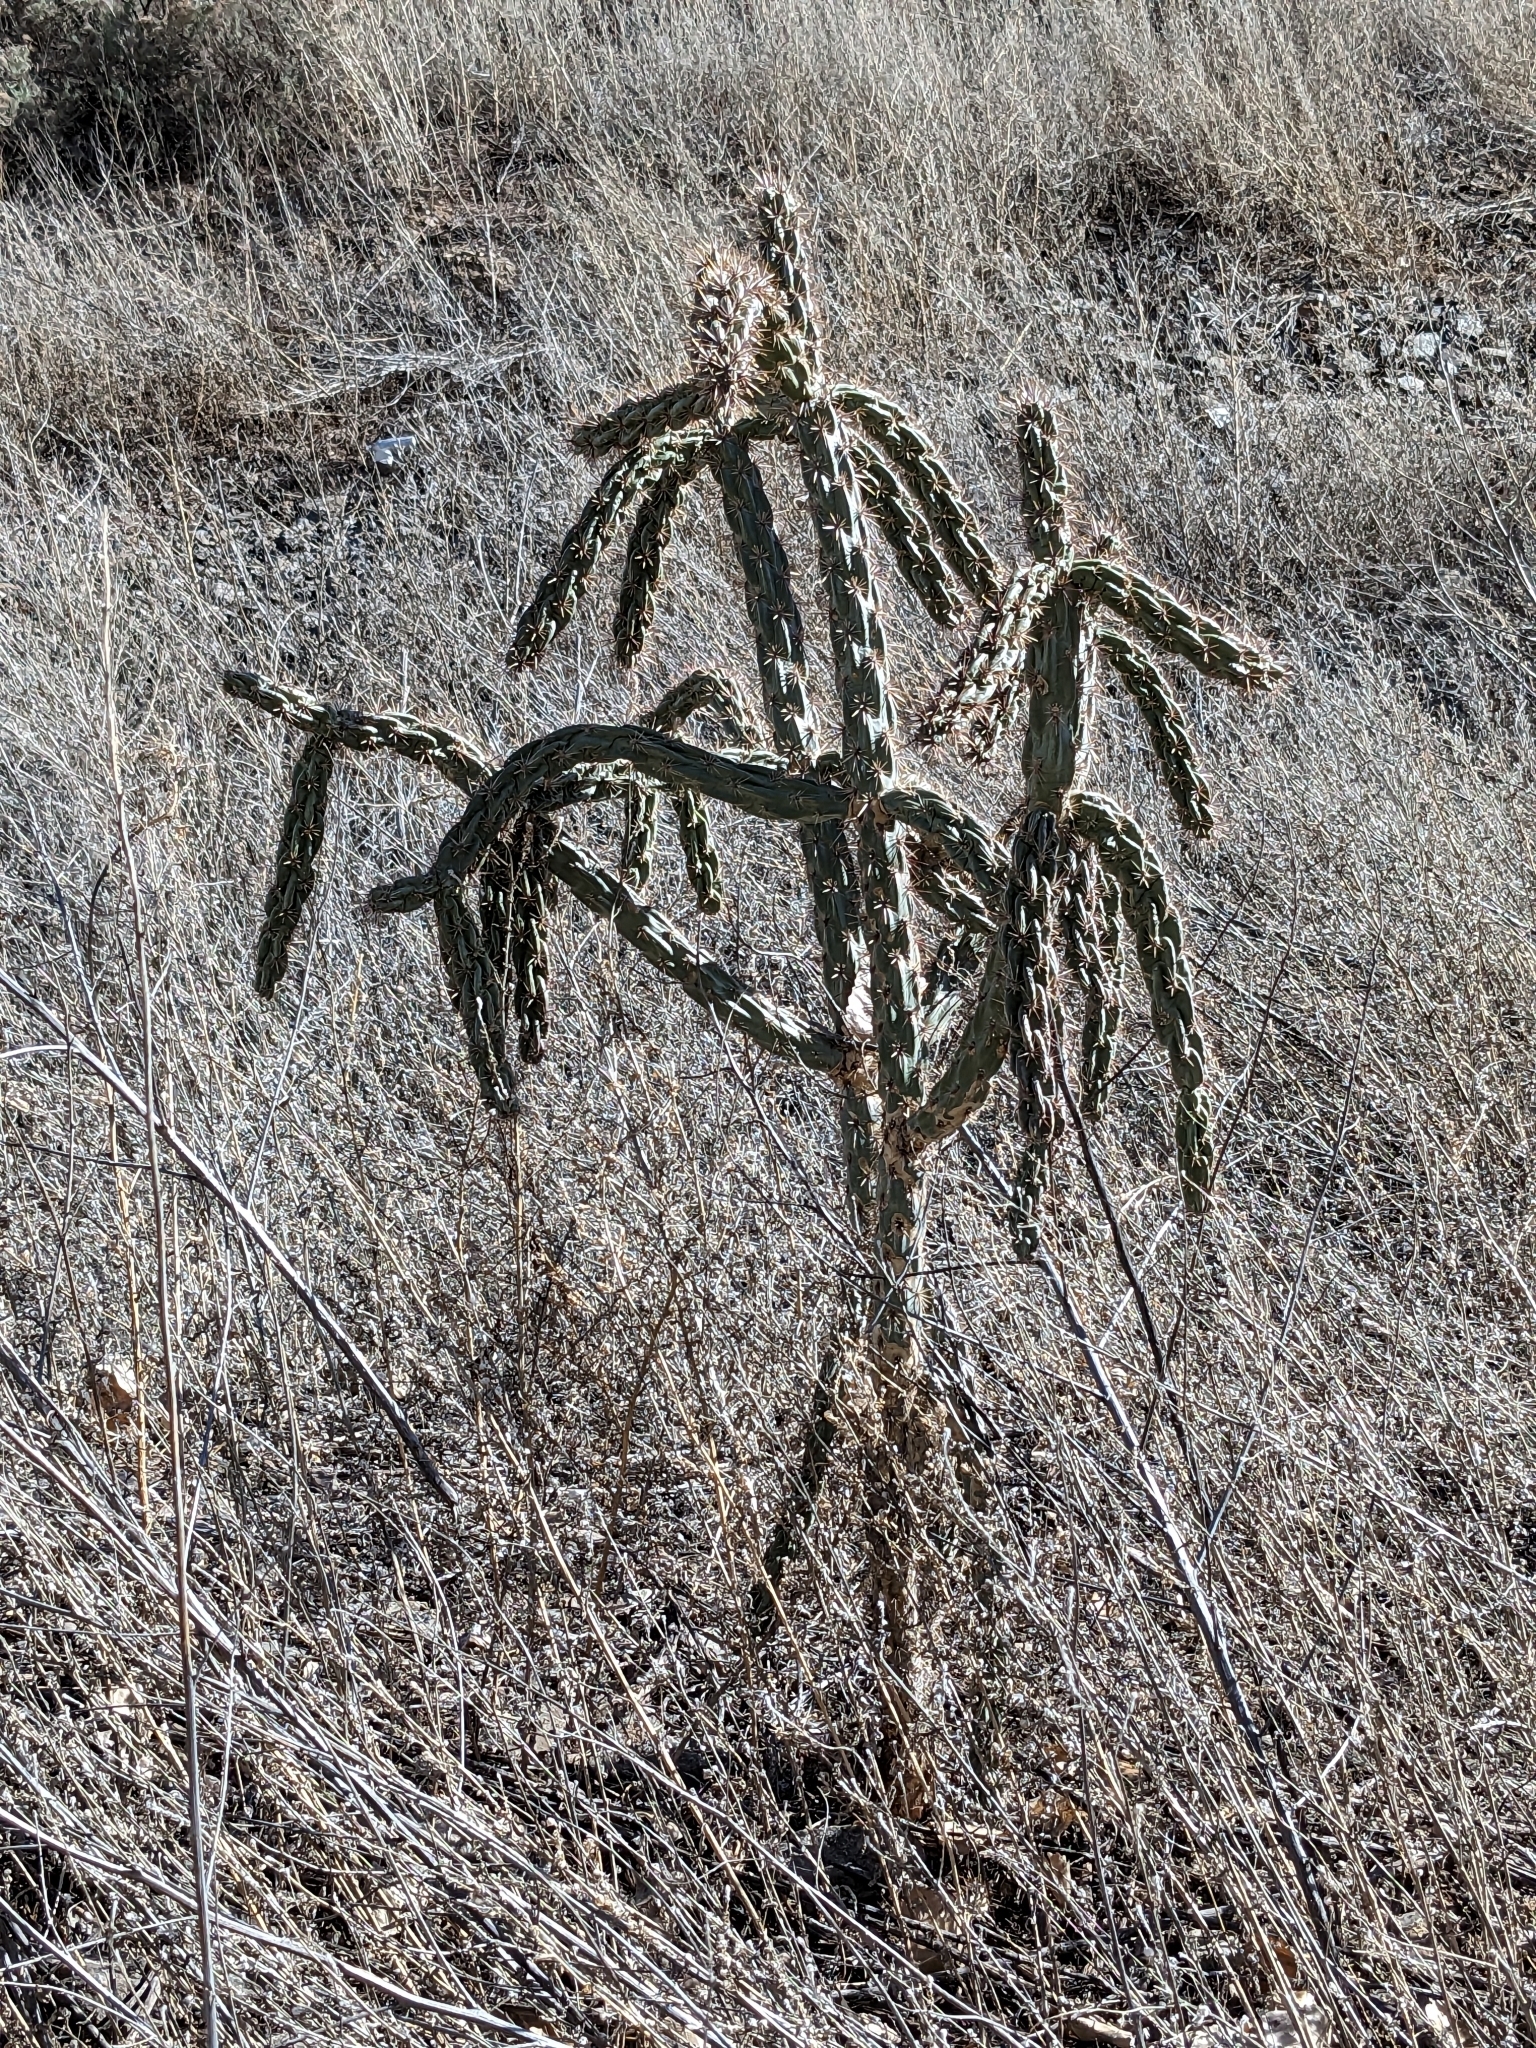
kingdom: Plantae
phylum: Tracheophyta
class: Magnoliopsida
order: Caryophyllales
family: Cactaceae
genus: Cylindropuntia
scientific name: Cylindropuntia imbricata
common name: Candelabrum cactus
